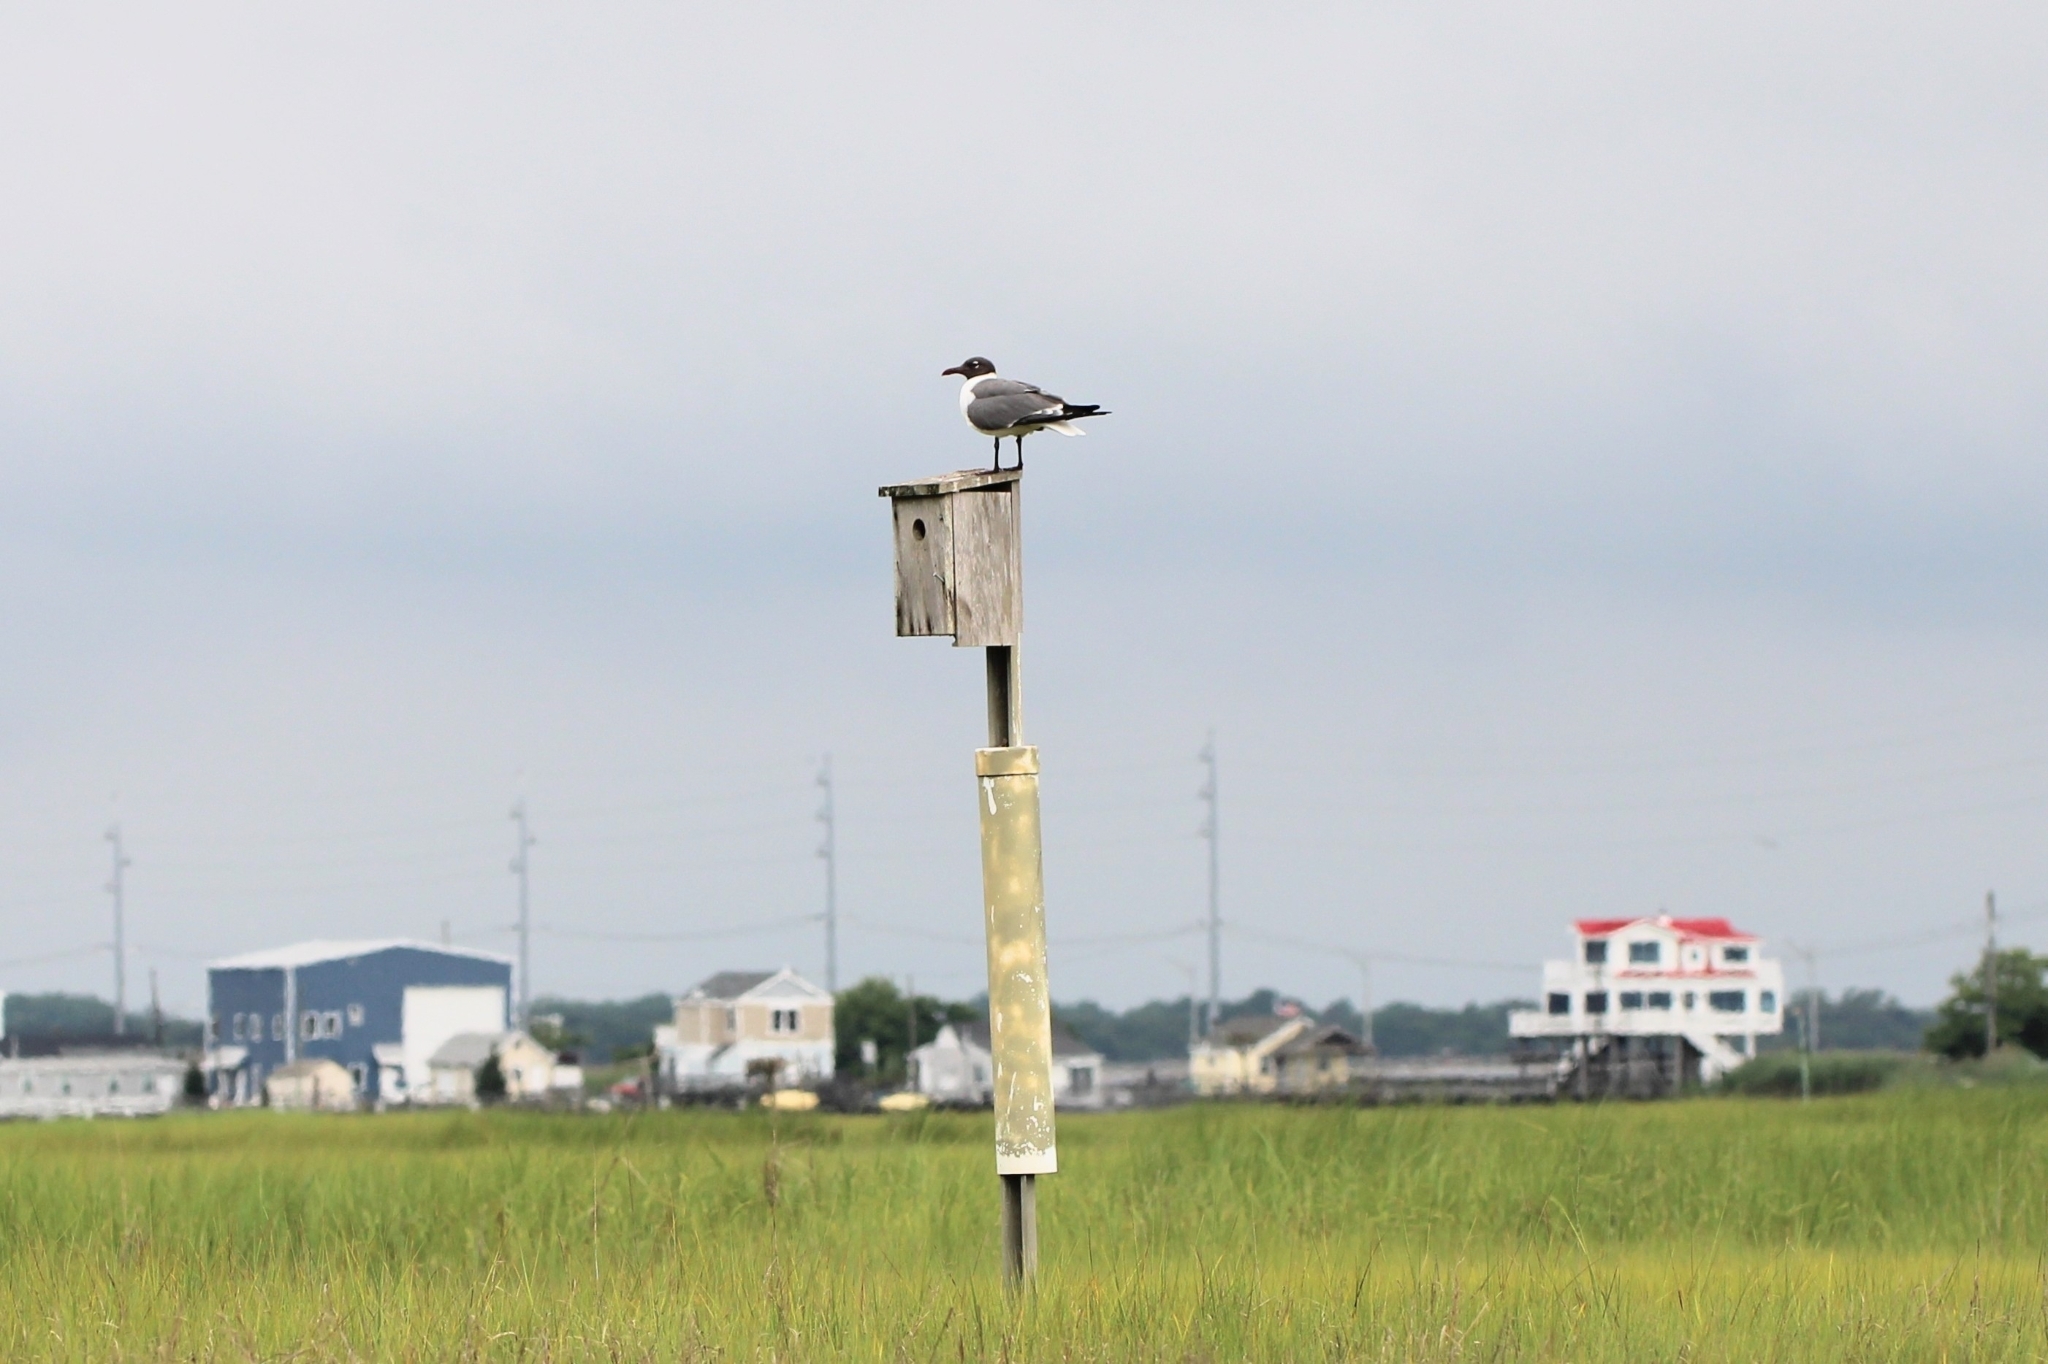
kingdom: Animalia
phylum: Chordata
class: Aves
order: Charadriiformes
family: Laridae
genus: Leucophaeus
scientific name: Leucophaeus atricilla
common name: Laughing gull
